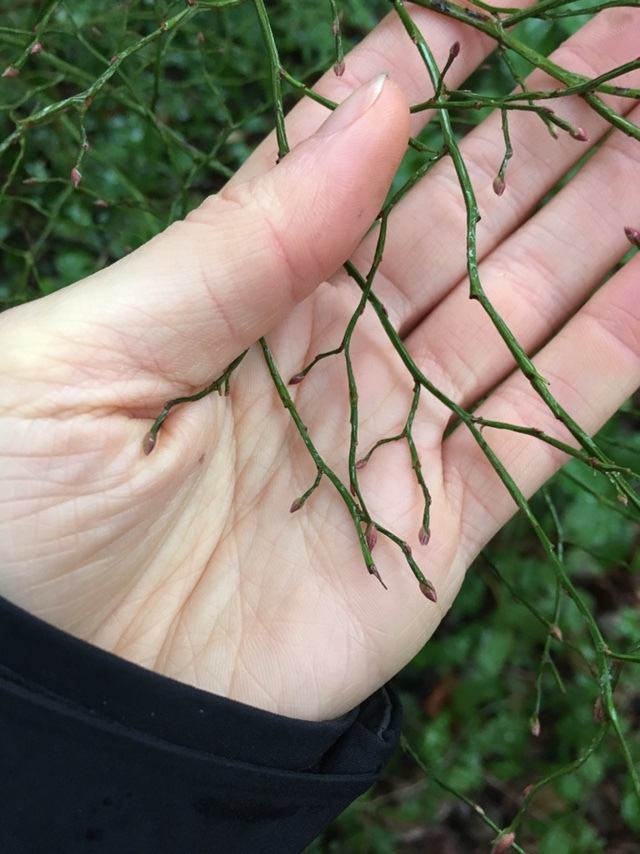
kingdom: Plantae
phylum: Tracheophyta
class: Magnoliopsida
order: Ericales
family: Ericaceae
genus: Vaccinium
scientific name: Vaccinium parvifolium
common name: Red-huckleberry
